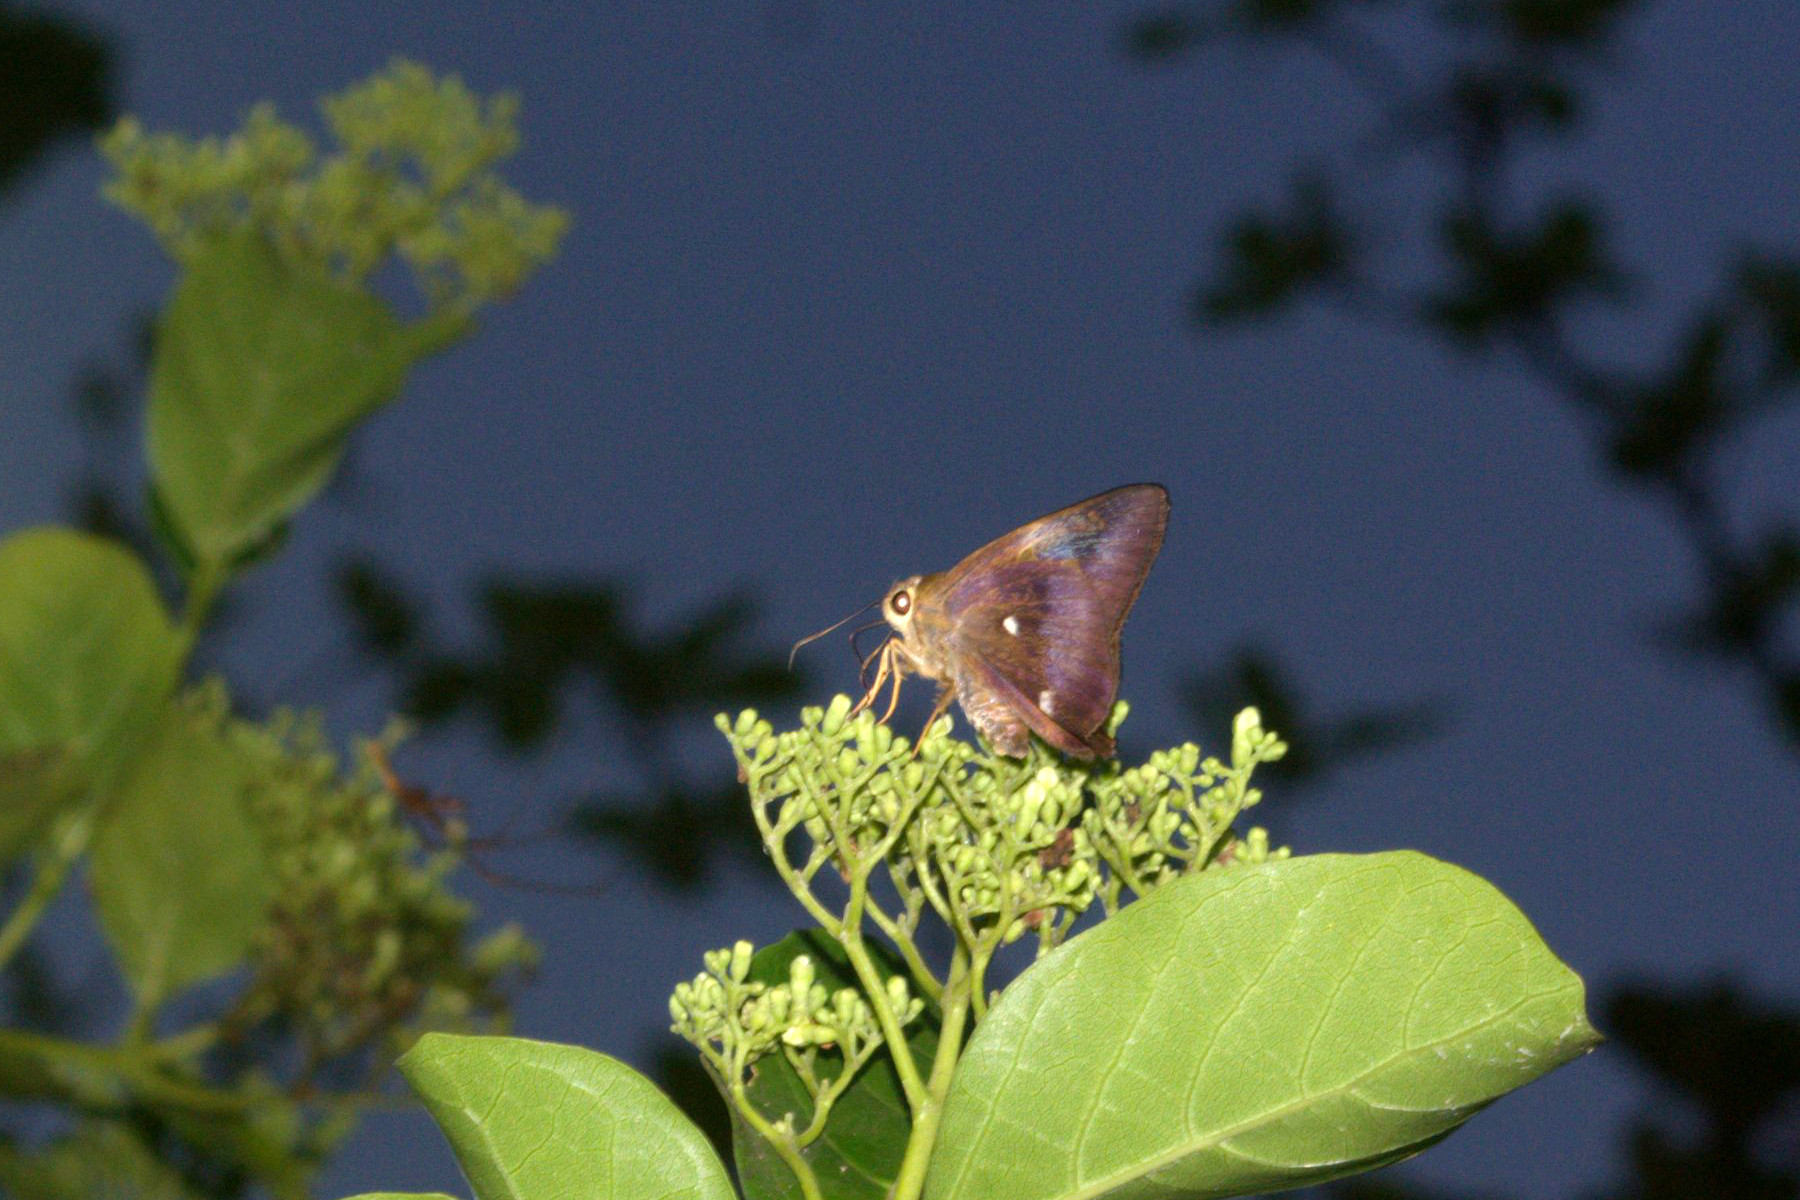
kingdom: Animalia
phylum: Arthropoda
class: Insecta
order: Lepidoptera
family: Hesperiidae
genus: Hasora
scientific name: Hasora badra
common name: Common awl
